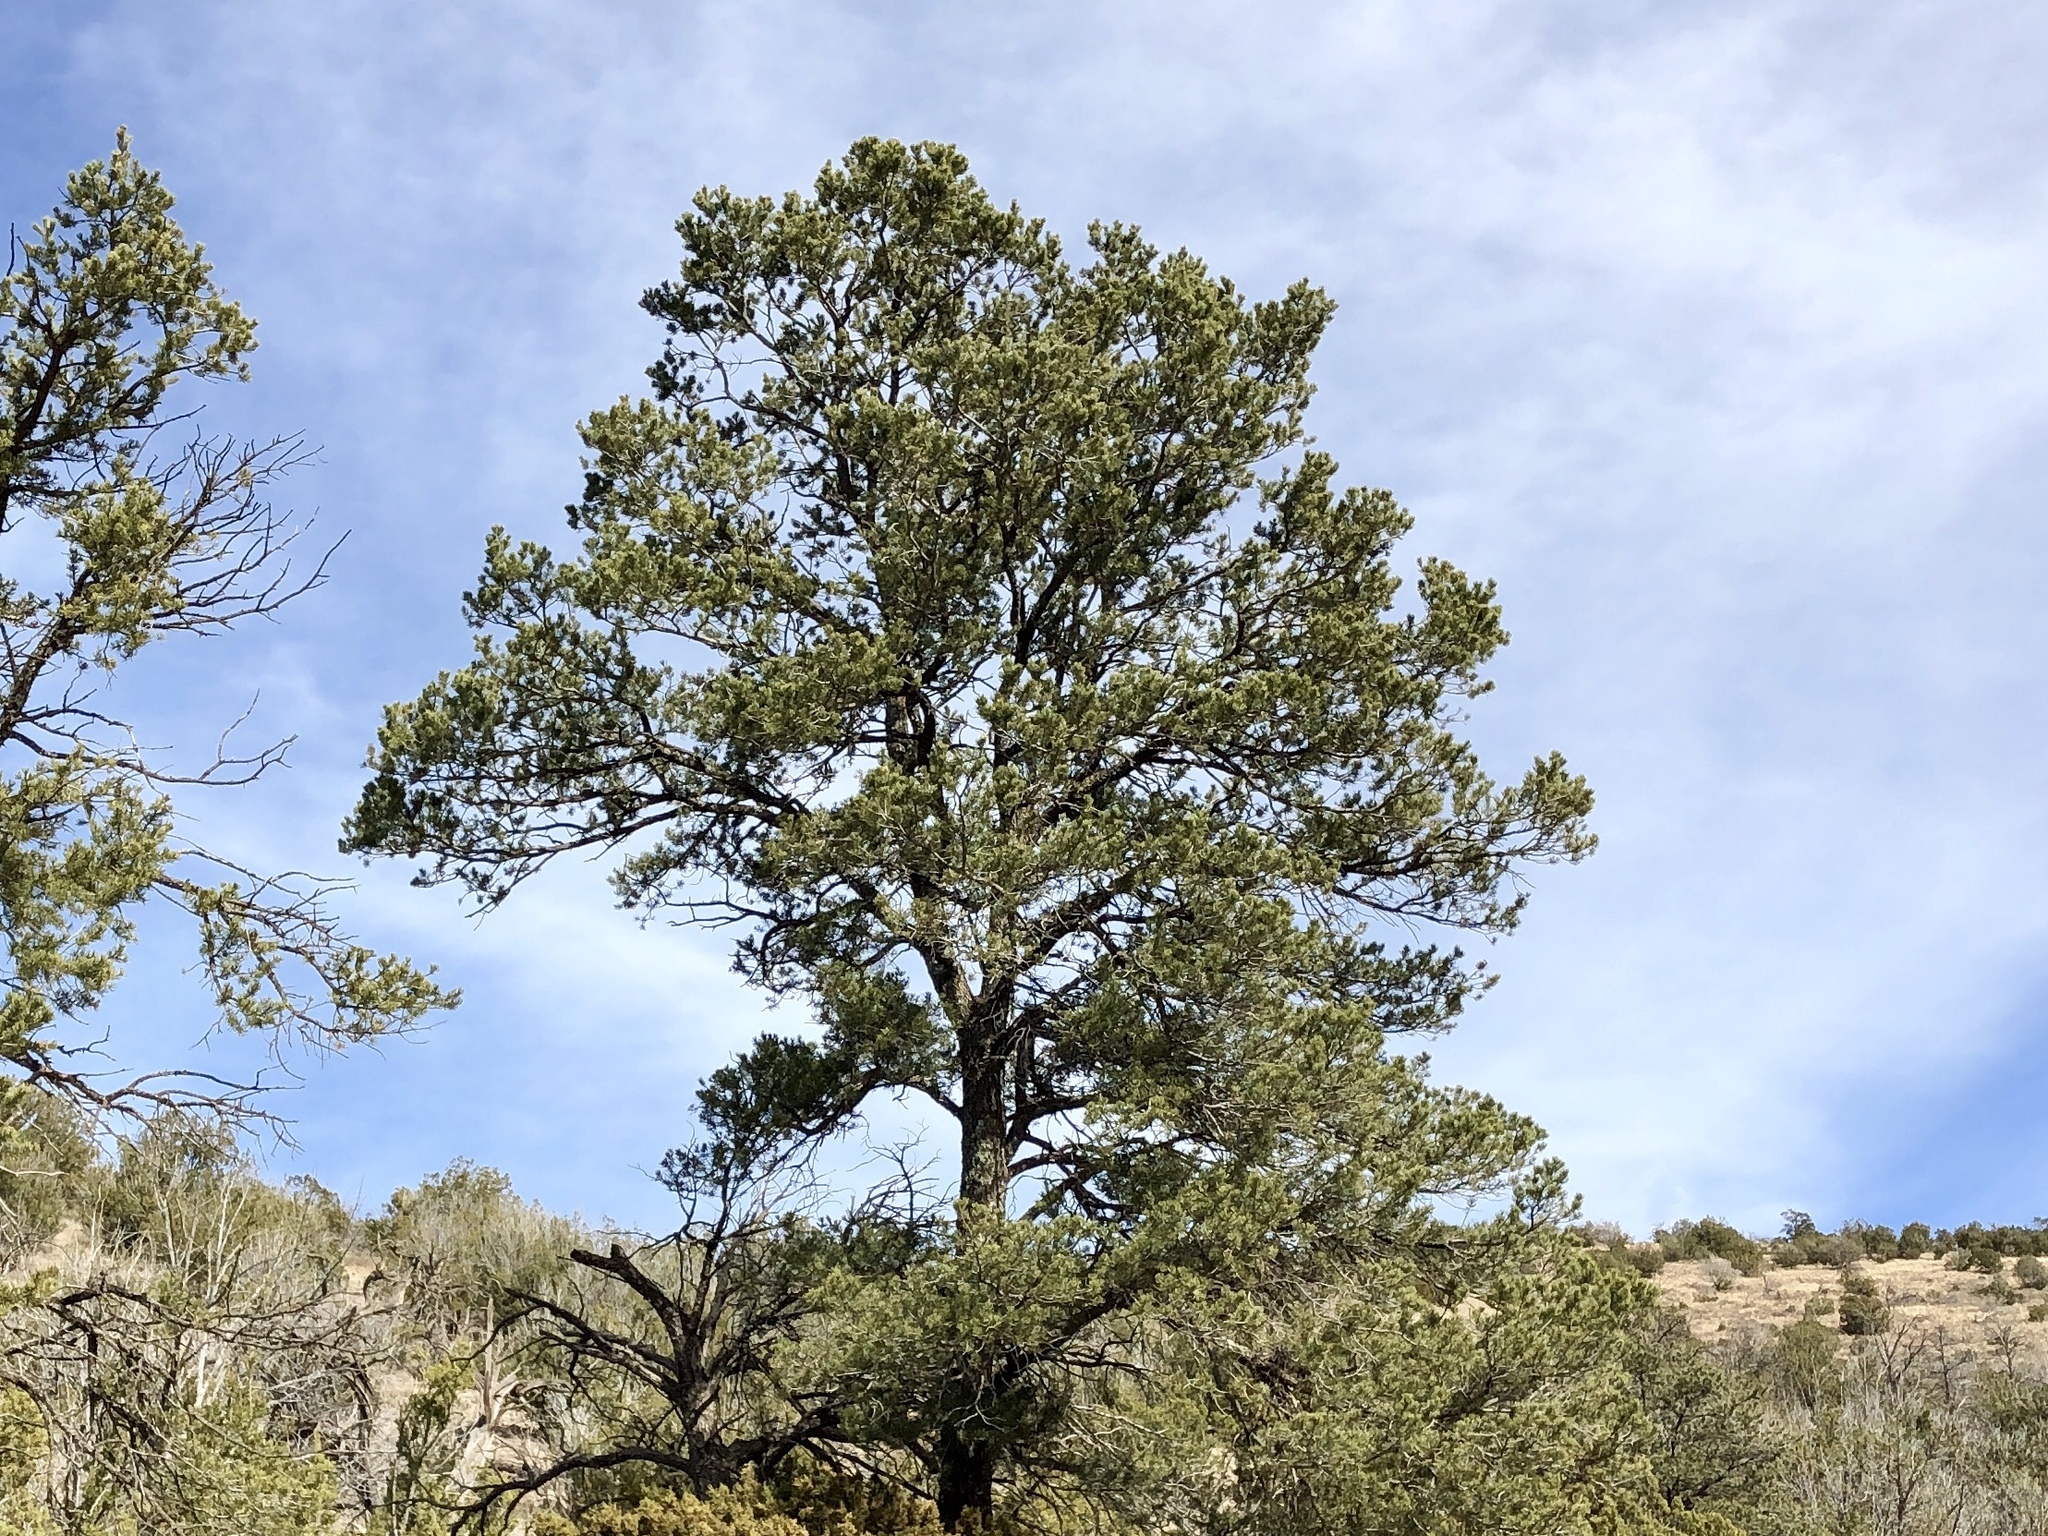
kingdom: Plantae
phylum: Tracheophyta
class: Pinopsida
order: Pinales
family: Pinaceae
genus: Pinus
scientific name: Pinus edulis
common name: Colorado pinyon
